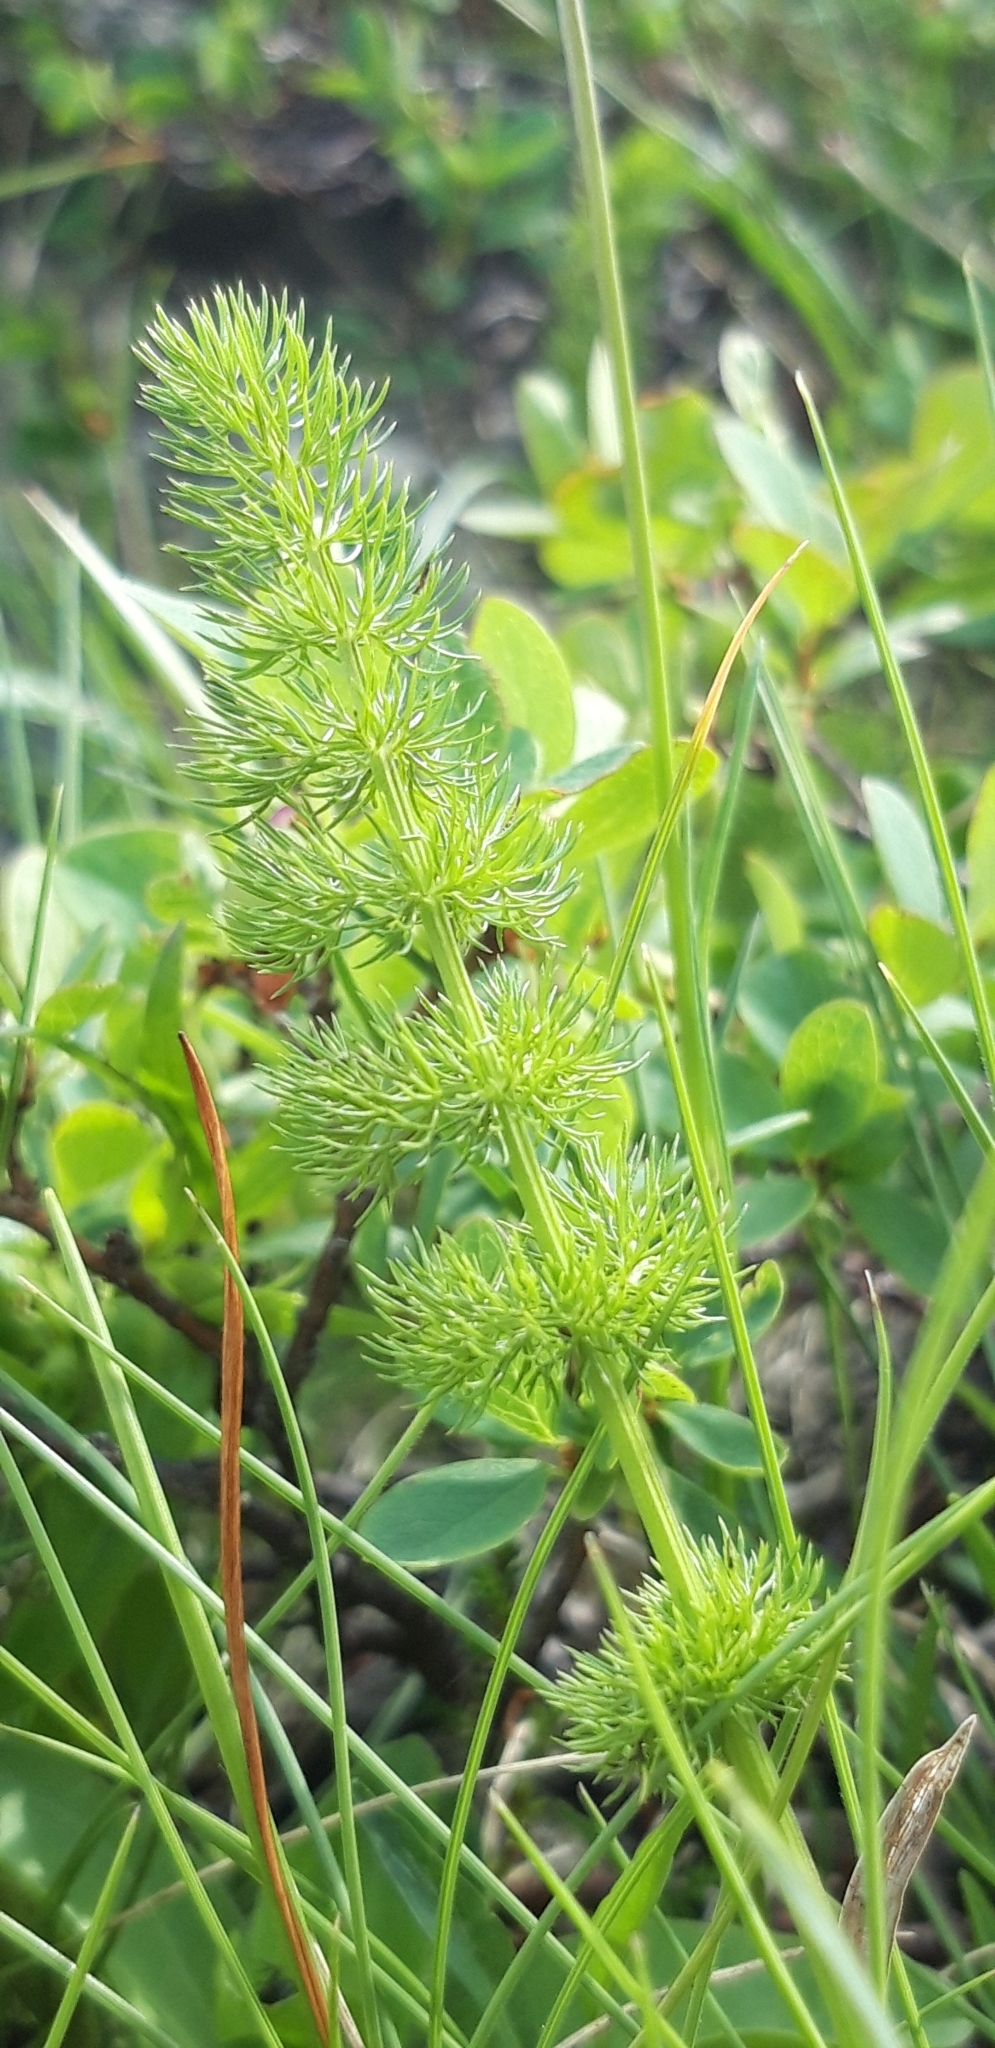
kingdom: Plantae
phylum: Tracheophyta
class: Magnoliopsida
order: Apiales
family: Apiaceae
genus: Meum
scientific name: Meum athamanticum
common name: Spignel
